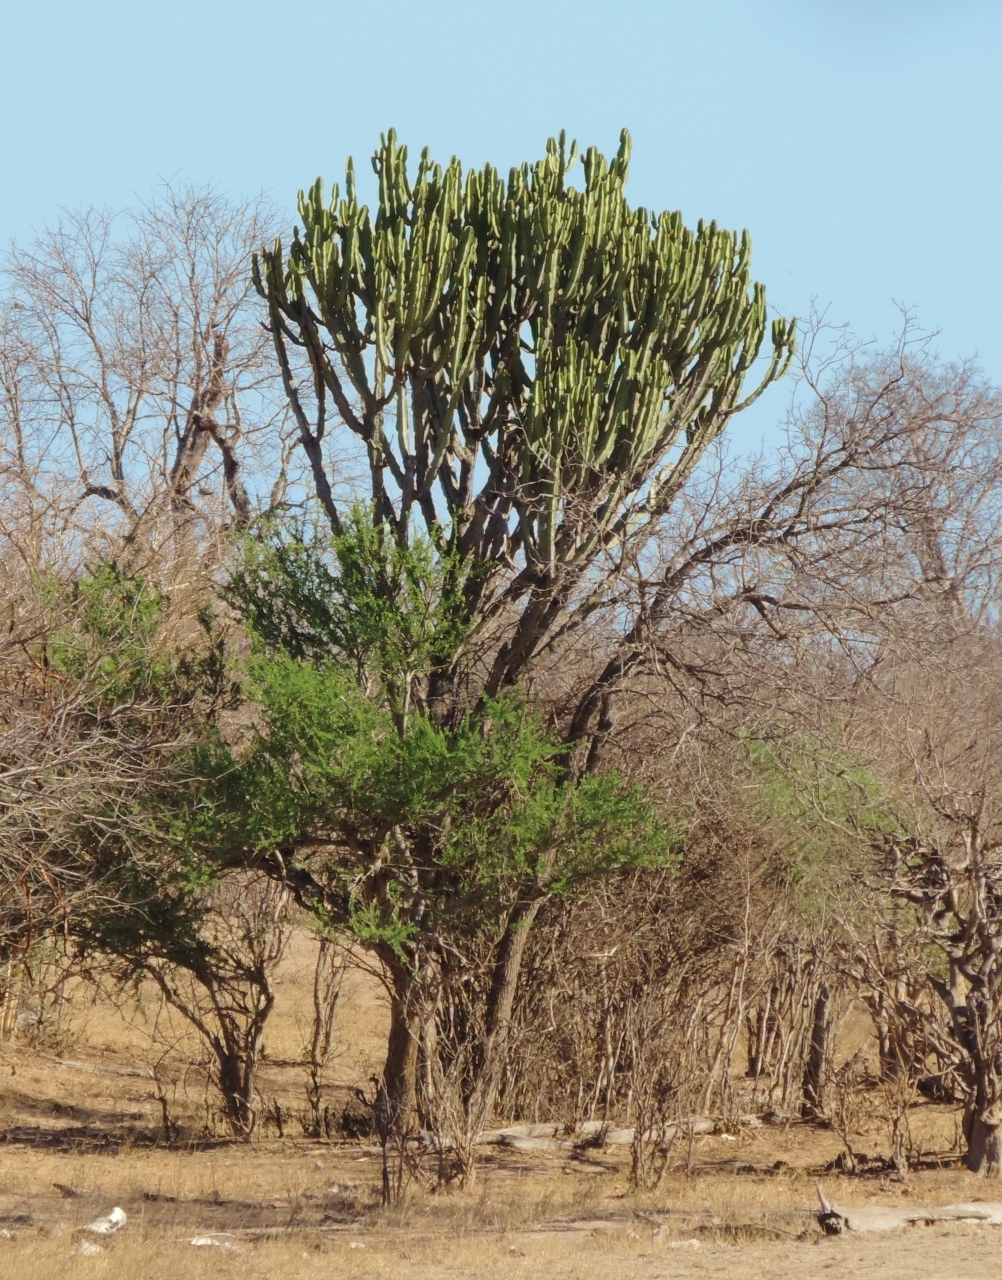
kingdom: Plantae
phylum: Tracheophyta
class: Magnoliopsida
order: Malpighiales
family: Euphorbiaceae
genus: Euphorbia
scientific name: Euphorbia ingens
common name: Cactus spurge
